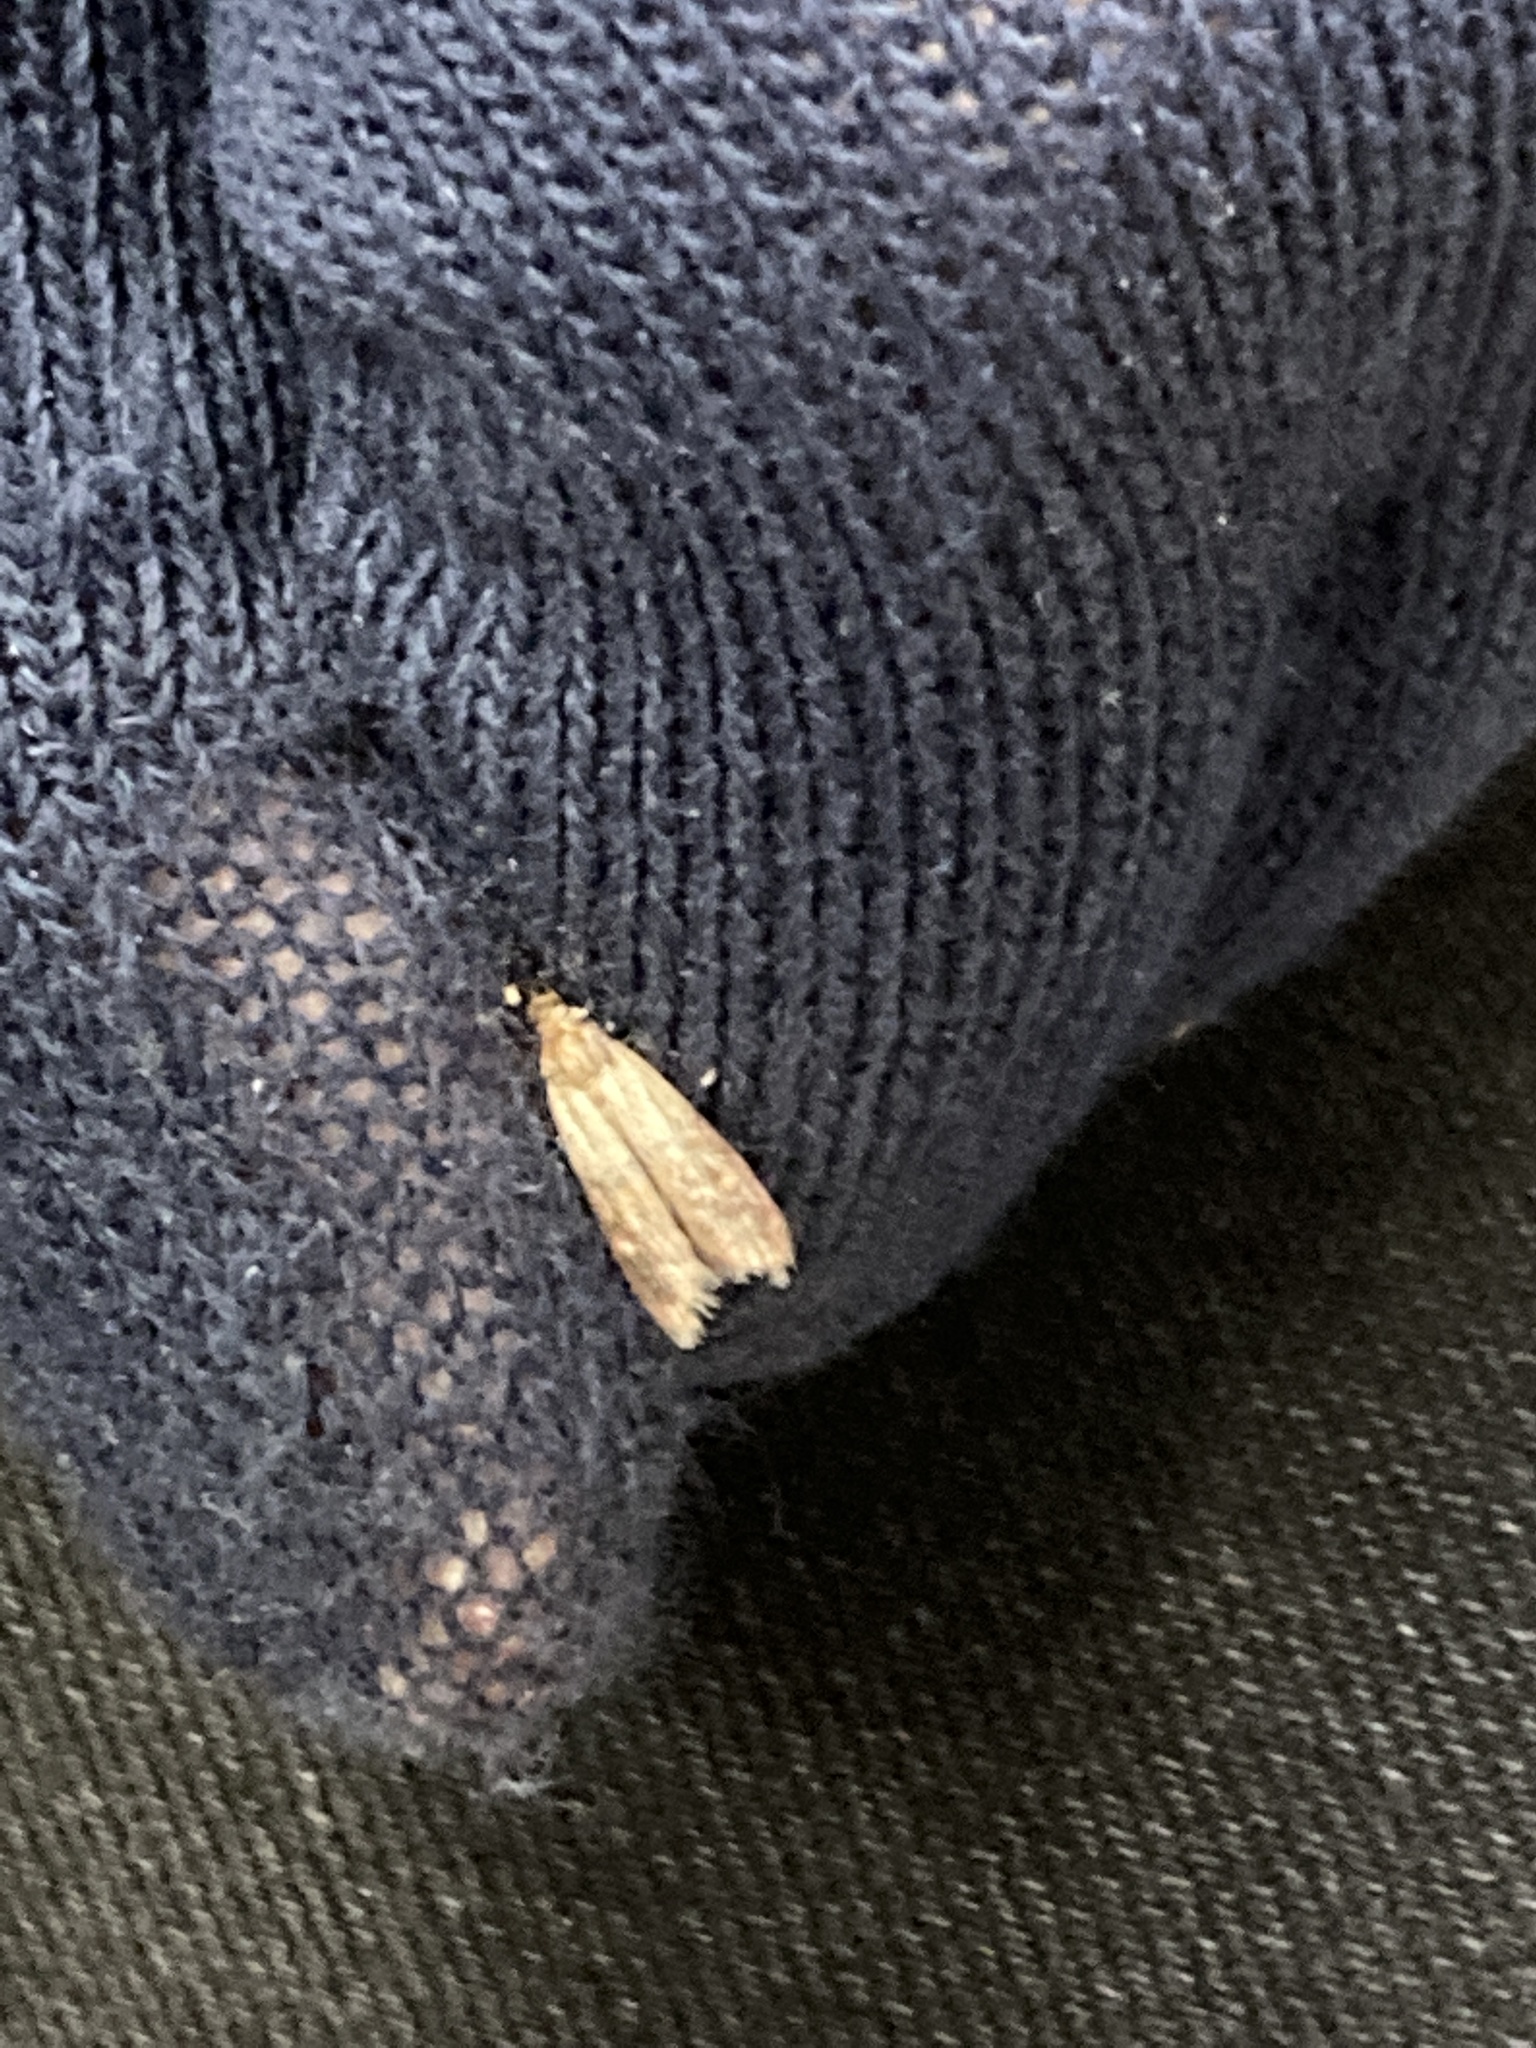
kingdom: Animalia
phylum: Arthropoda
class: Insecta
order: Lepidoptera
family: Pyralidae
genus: Plodia
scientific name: Plodia interpunctella
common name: Indian meal moth
